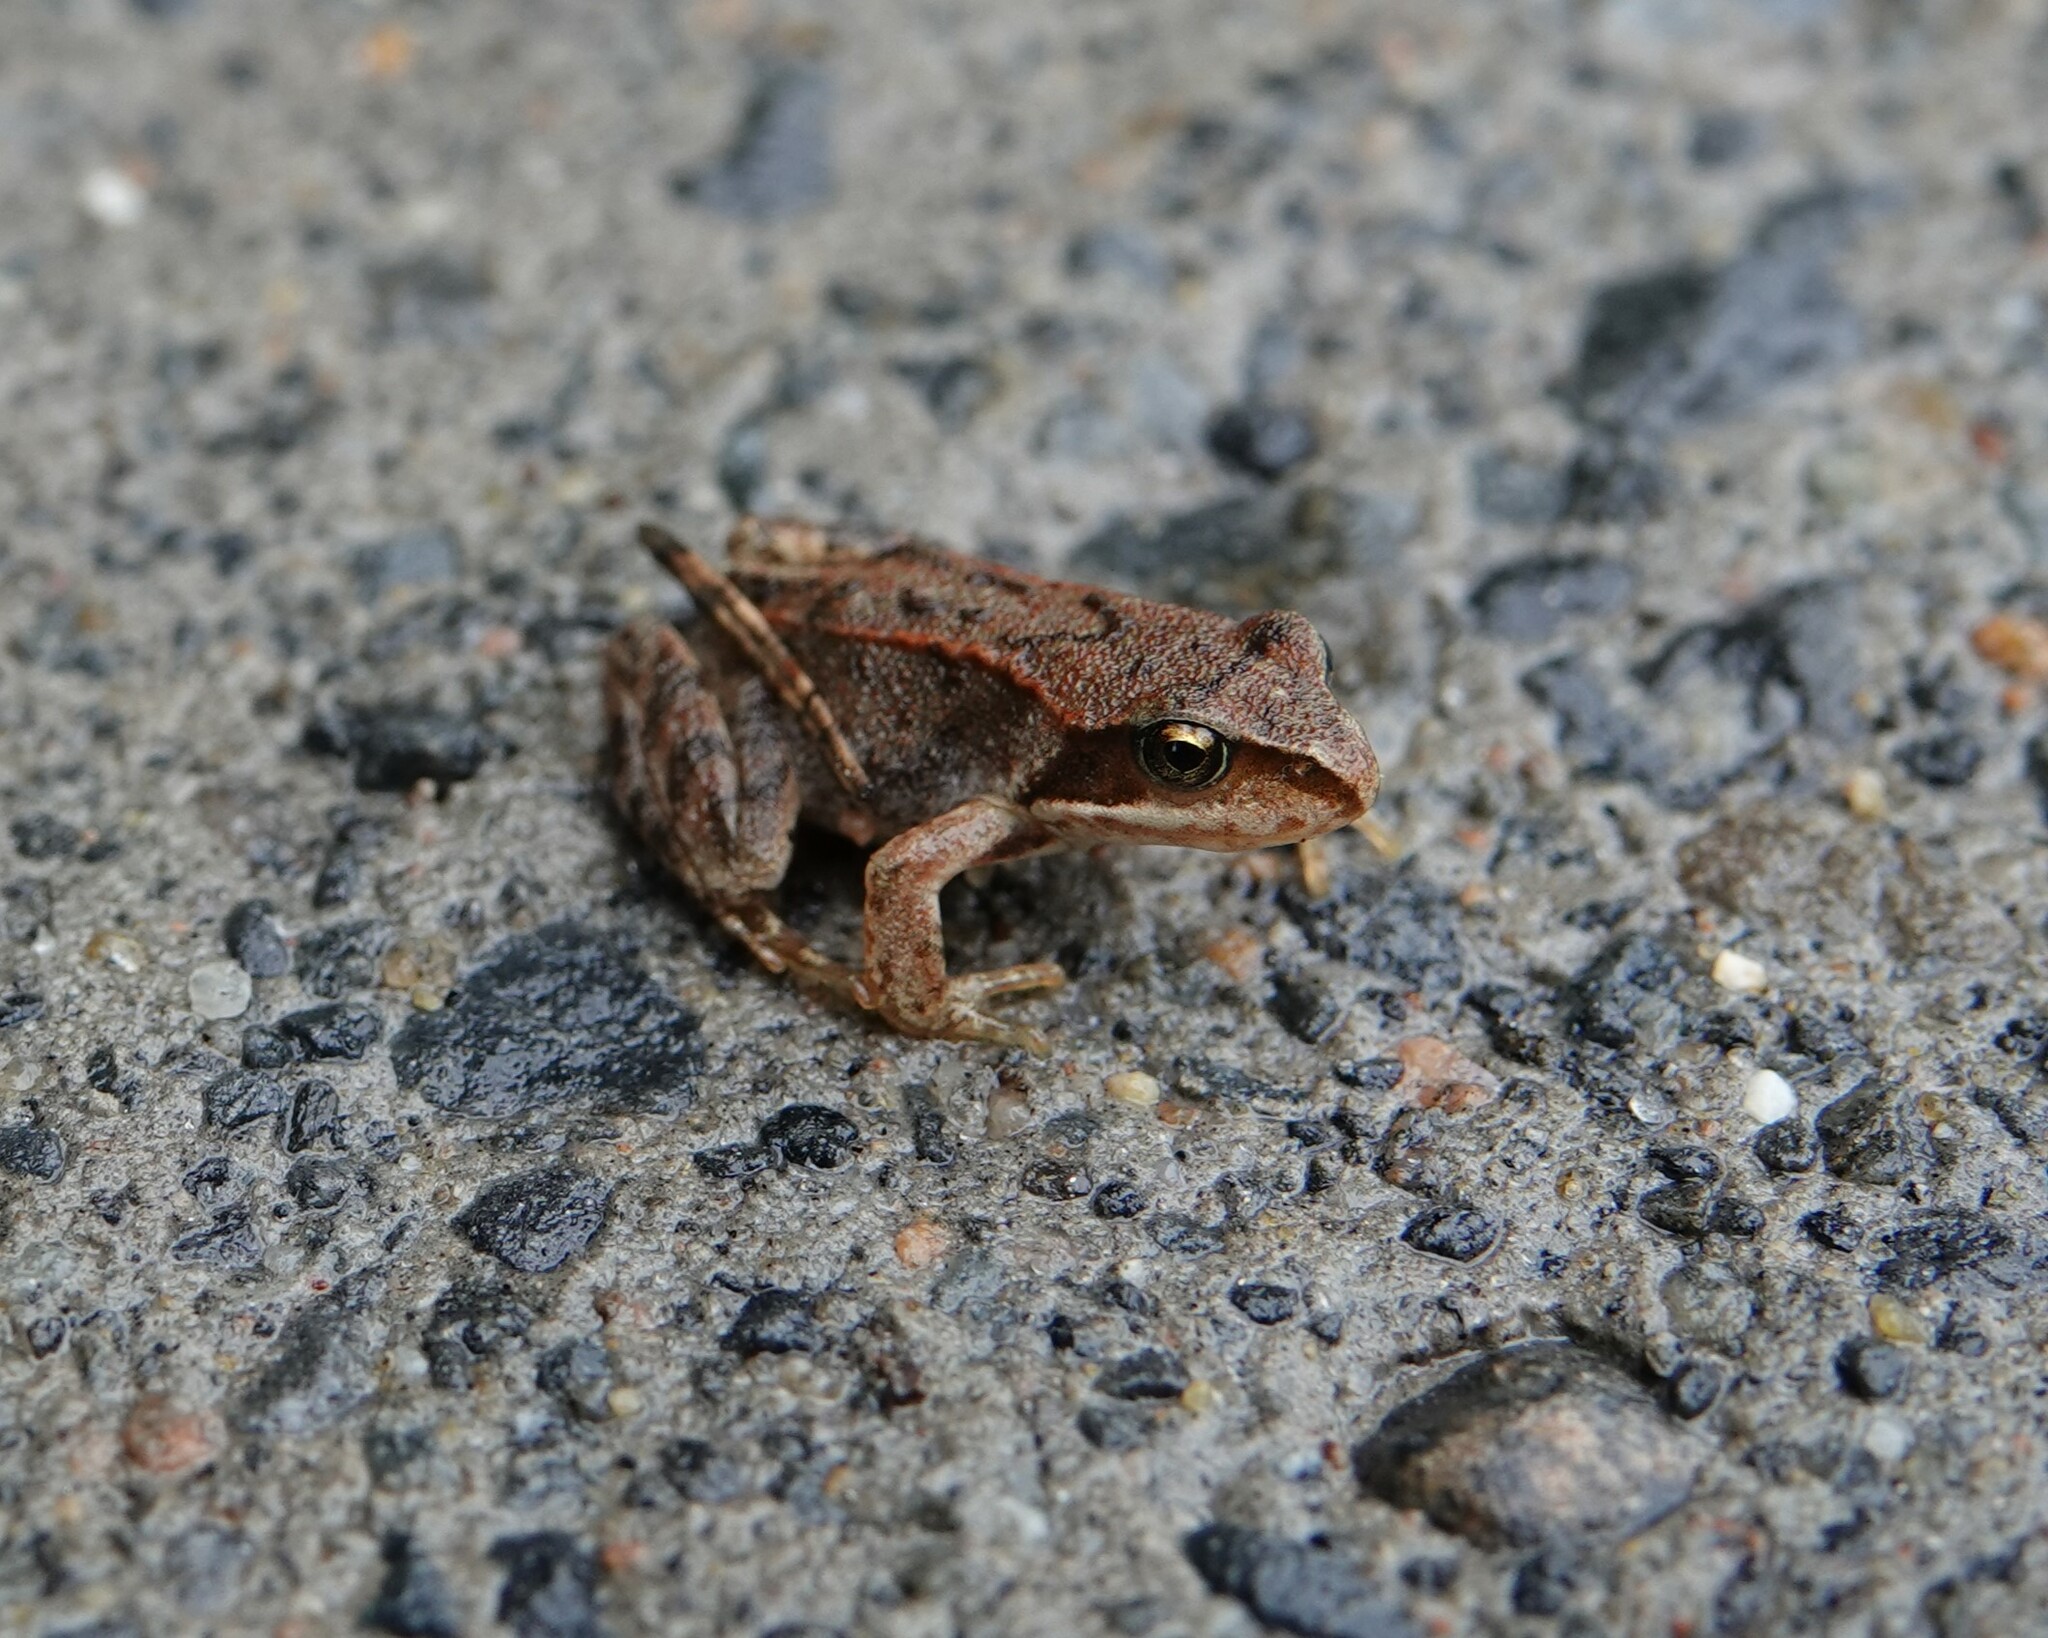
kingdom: Animalia
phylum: Chordata
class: Amphibia
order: Anura
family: Ranidae
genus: Rana
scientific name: Rana temporaria
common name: Common frog
